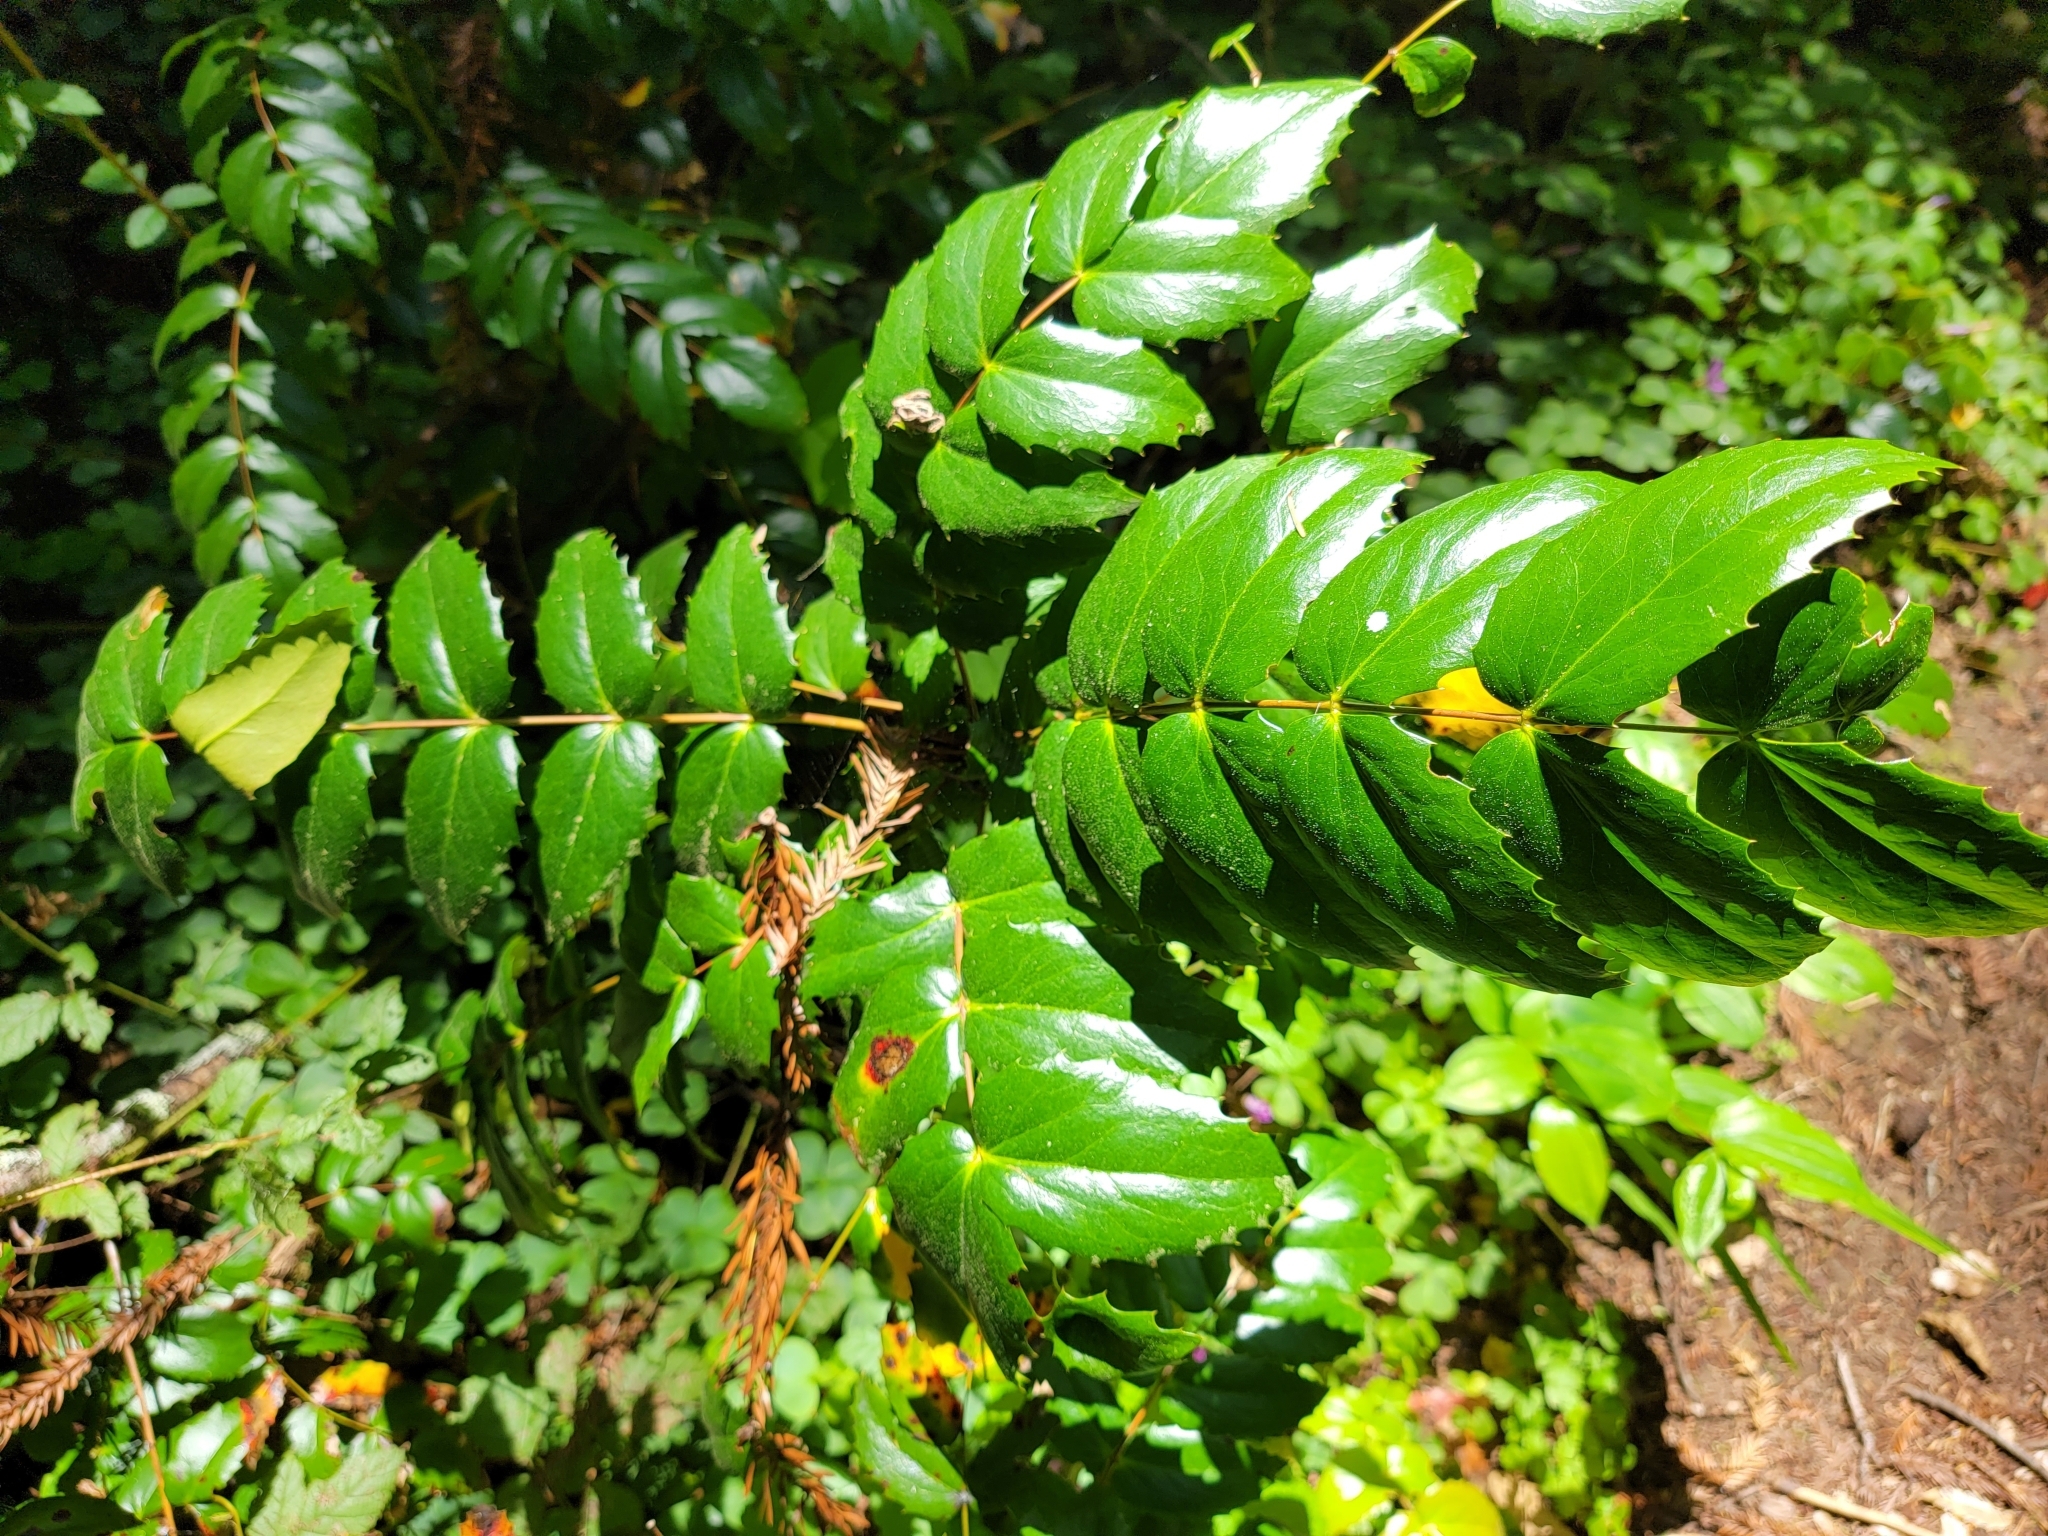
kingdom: Plantae
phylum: Tracheophyta
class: Magnoliopsida
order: Ranunculales
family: Berberidaceae
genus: Mahonia
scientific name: Mahonia nervosa
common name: Cascade oregon-grape
